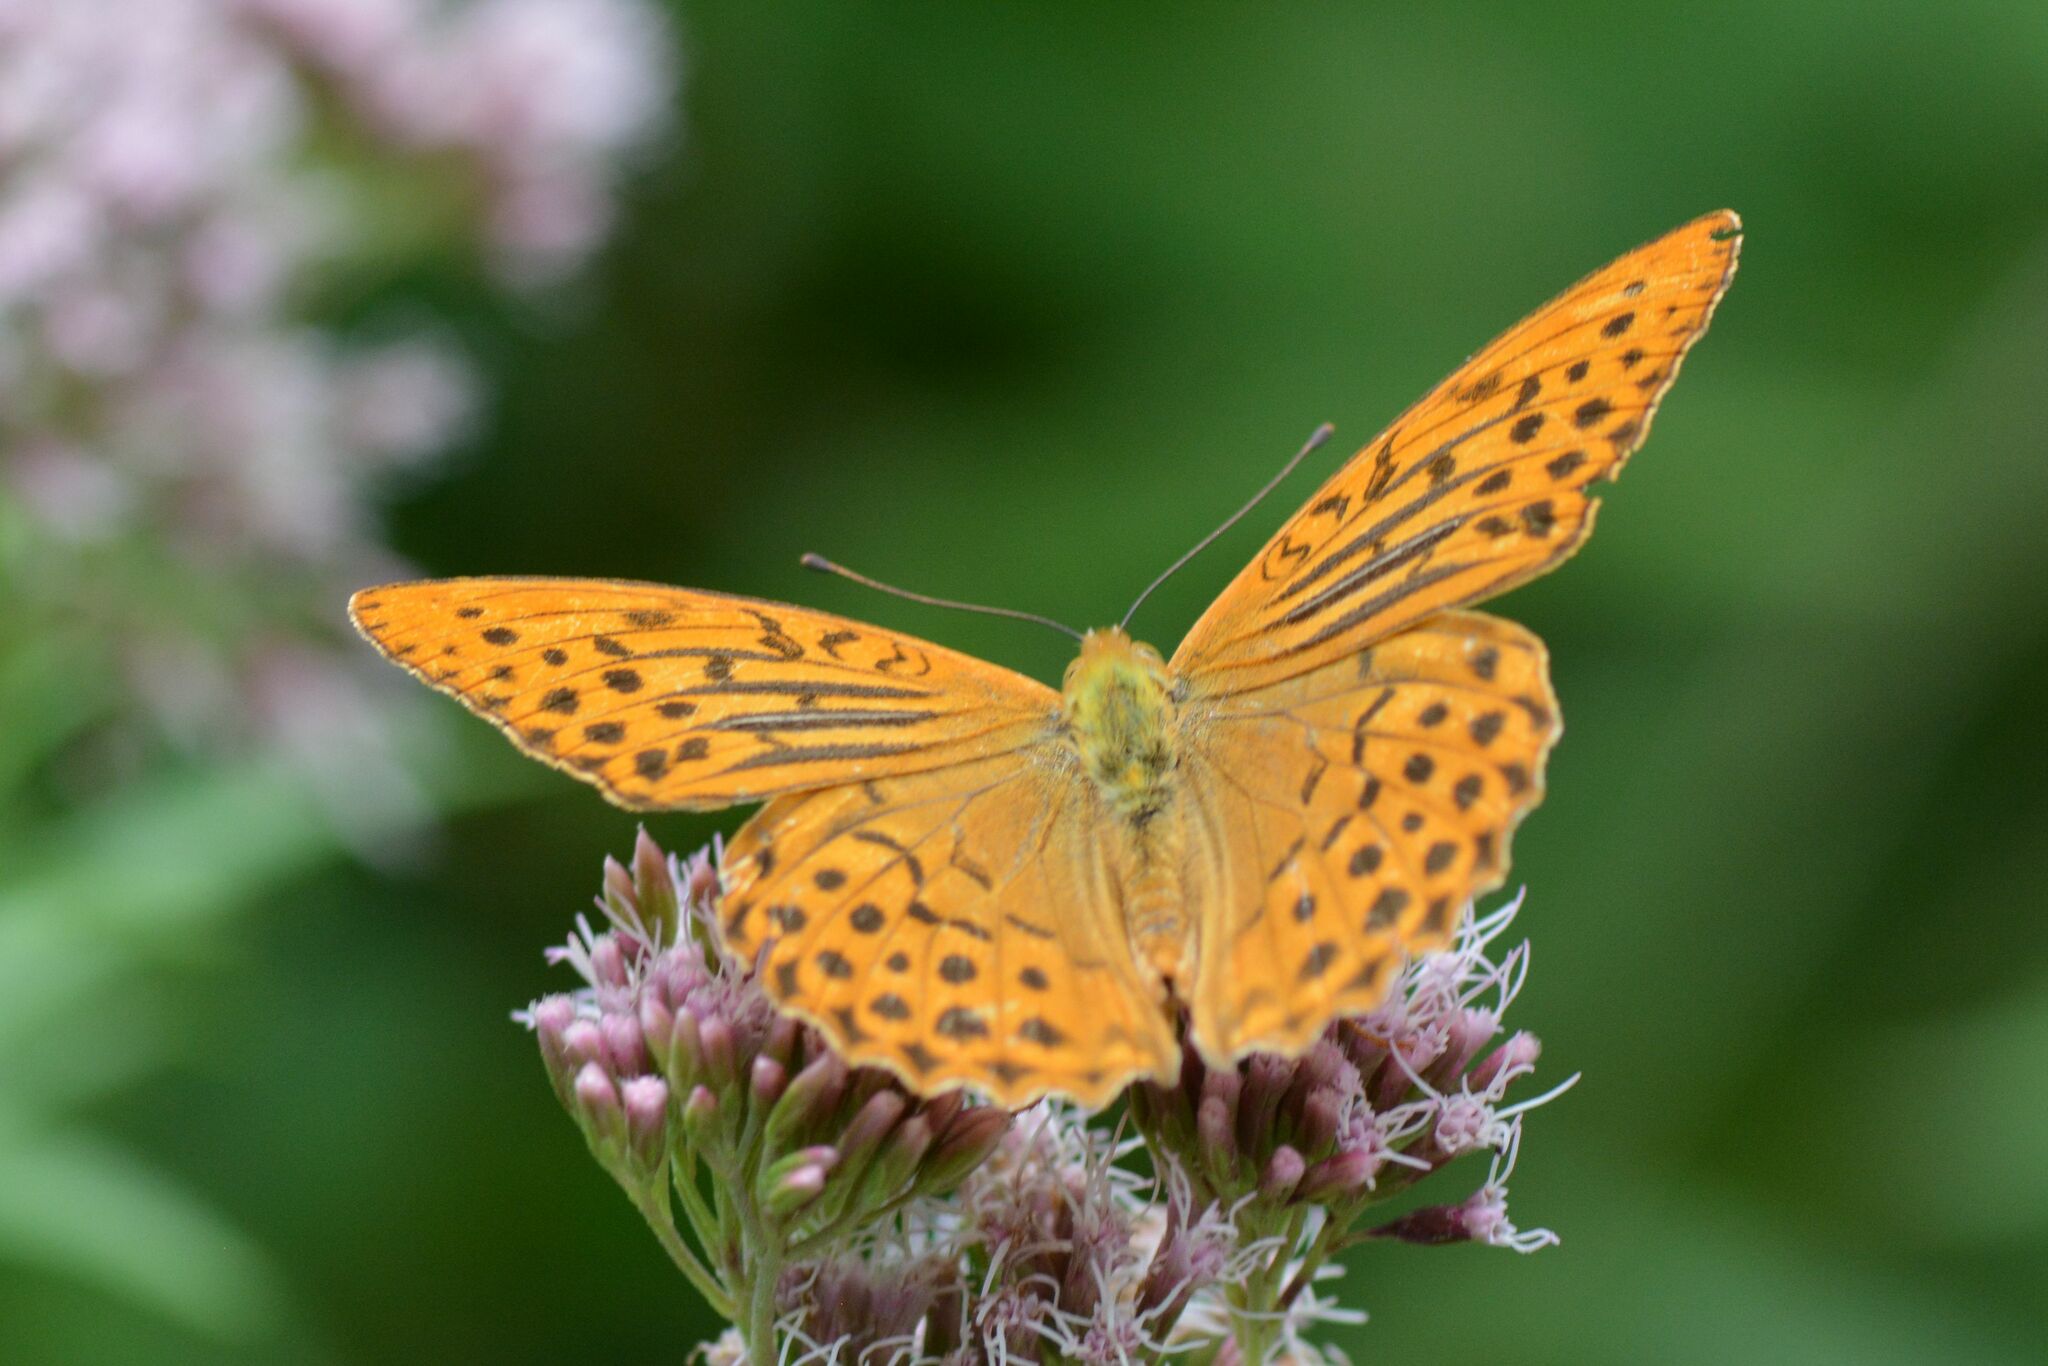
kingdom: Animalia
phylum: Arthropoda
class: Insecta
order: Lepidoptera
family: Nymphalidae
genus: Argynnis
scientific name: Argynnis paphia
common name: Silver-washed fritillary
